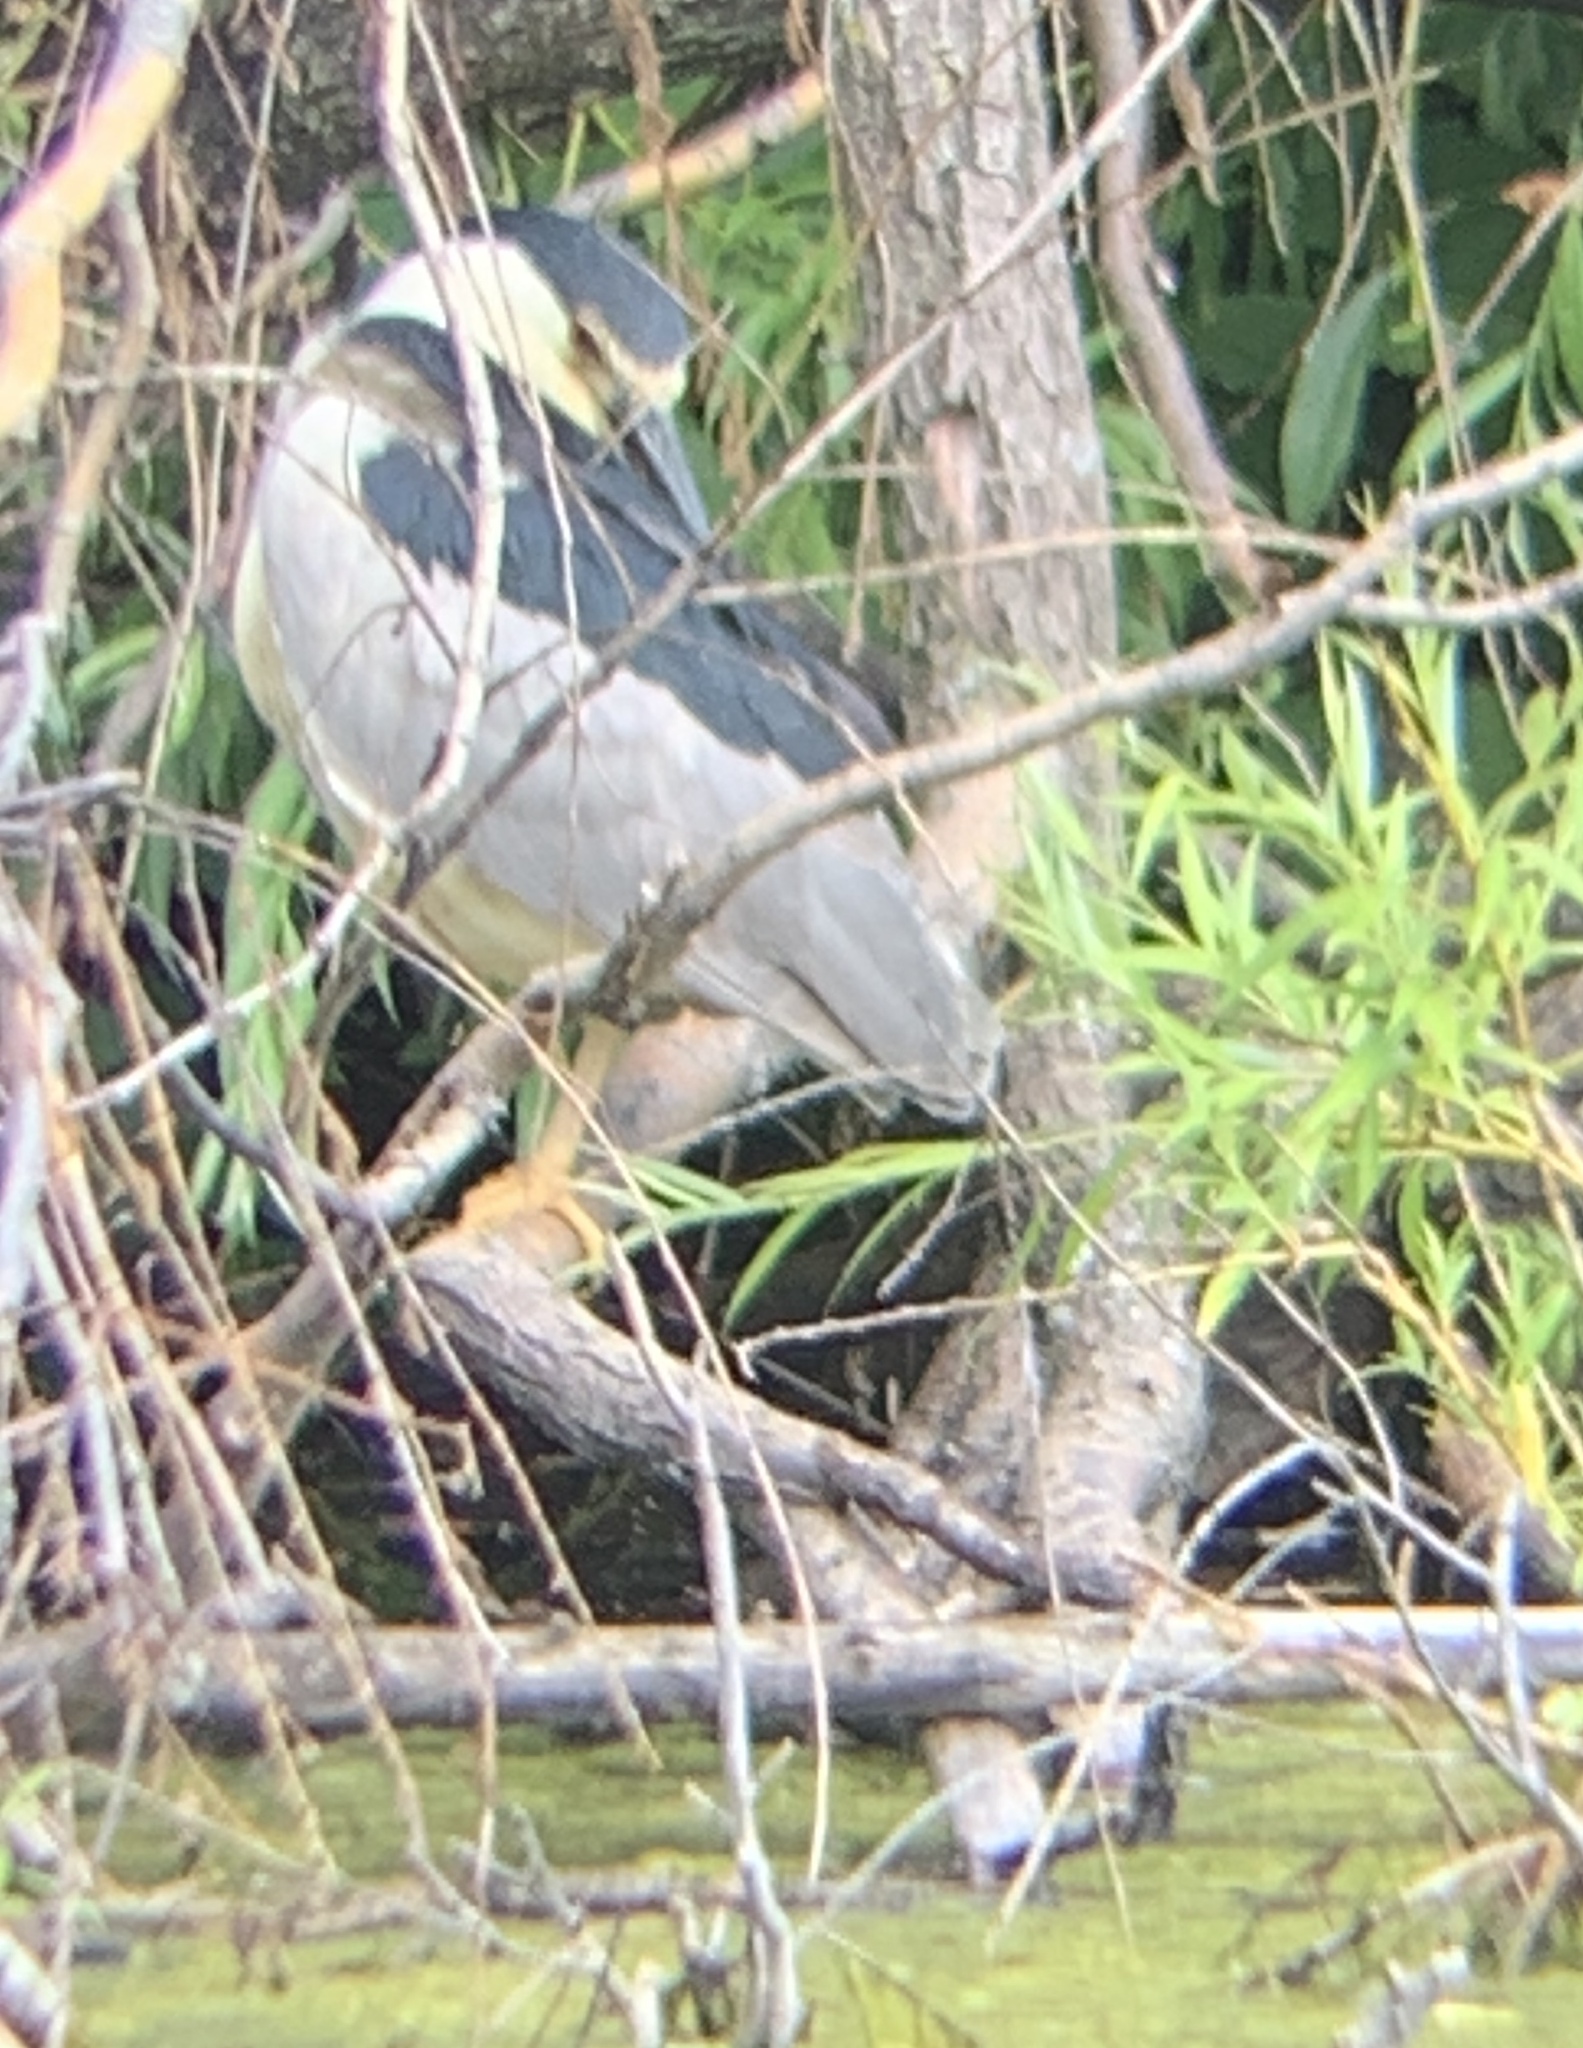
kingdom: Animalia
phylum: Chordata
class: Aves
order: Pelecaniformes
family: Ardeidae
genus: Nycticorax
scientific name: Nycticorax nycticorax
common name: Black-crowned night heron
